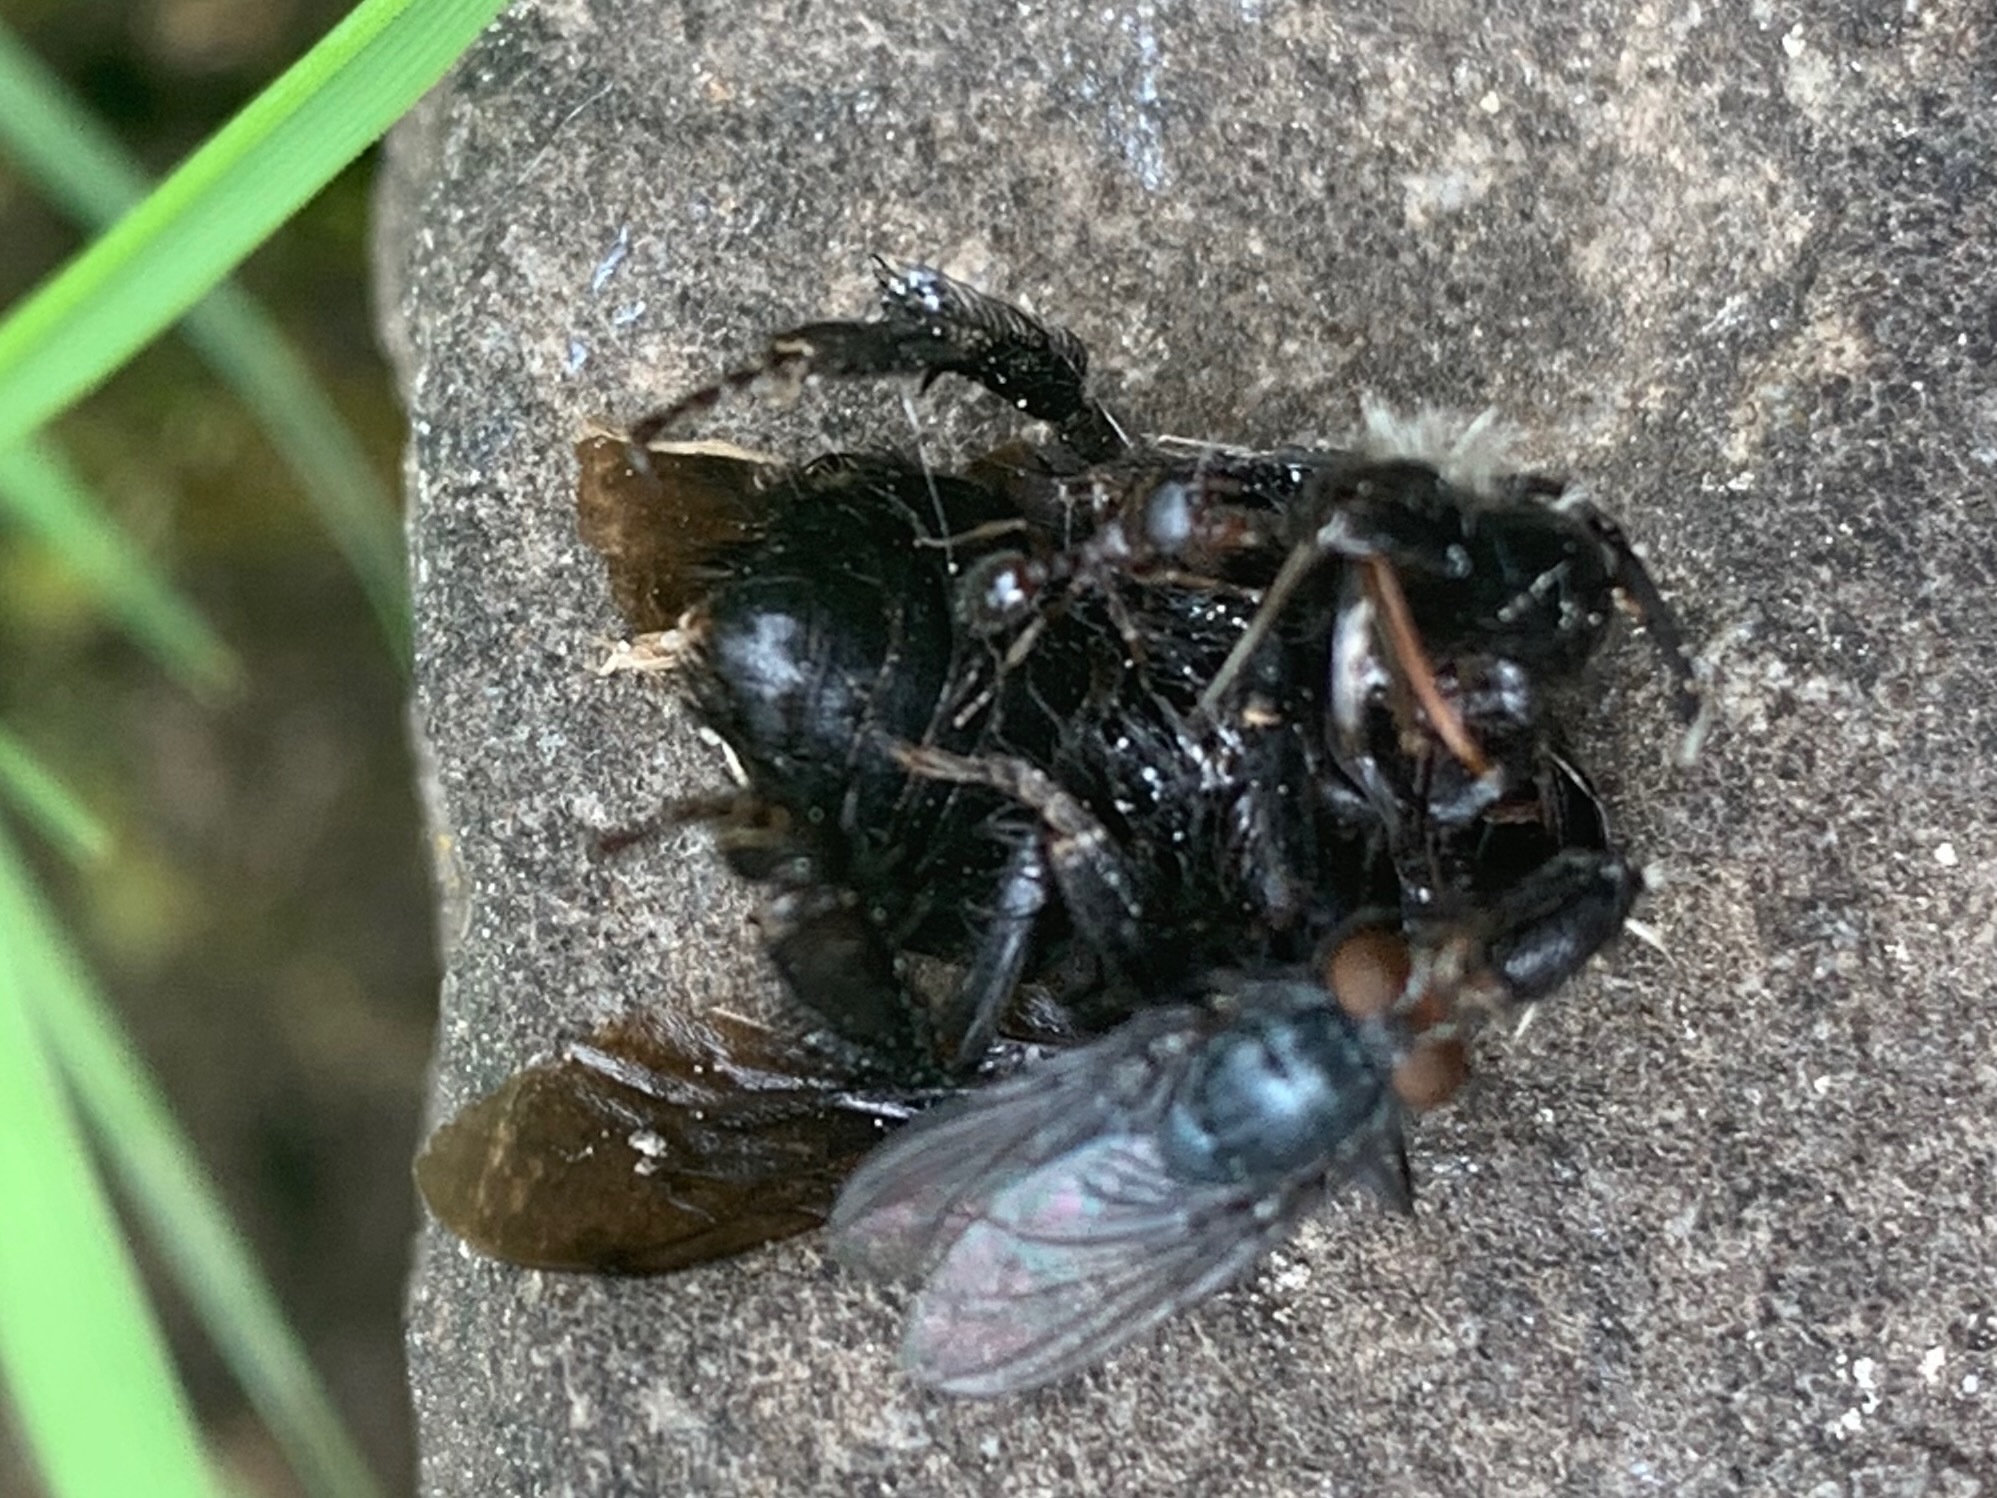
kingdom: Animalia
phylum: Arthropoda
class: Insecta
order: Hymenoptera
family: Formicidae
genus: Tetramorium
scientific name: Tetramorium immigrans
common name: Pavement ant
